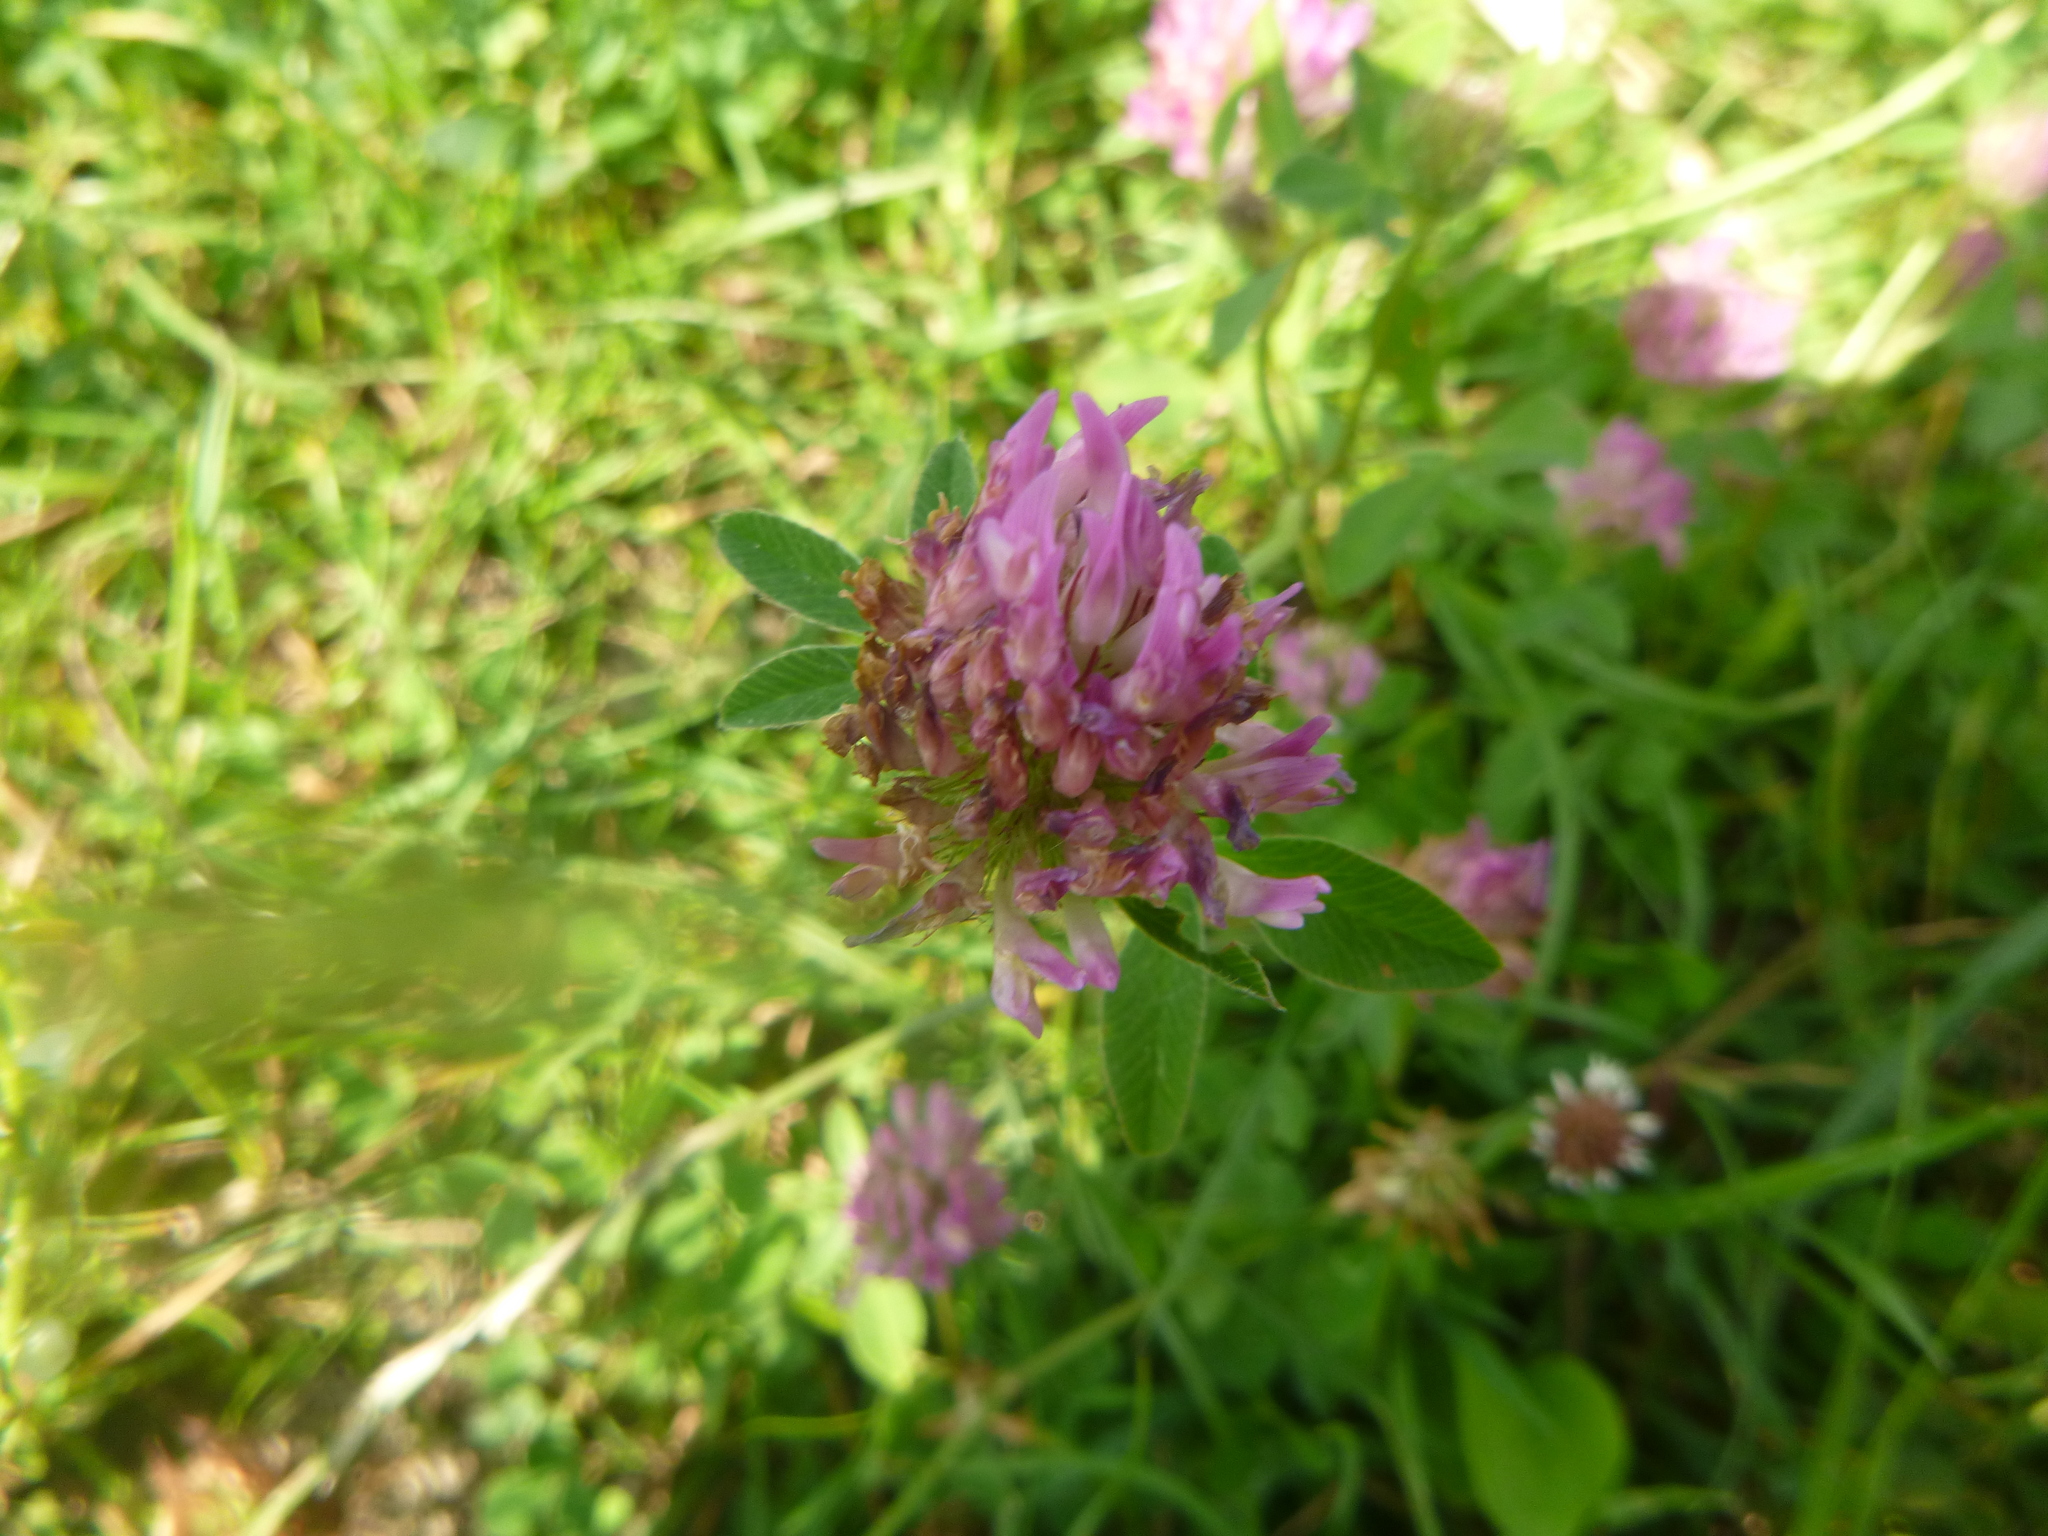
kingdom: Plantae
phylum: Tracheophyta
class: Magnoliopsida
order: Fabales
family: Fabaceae
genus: Trifolium
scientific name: Trifolium pratense
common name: Red clover
